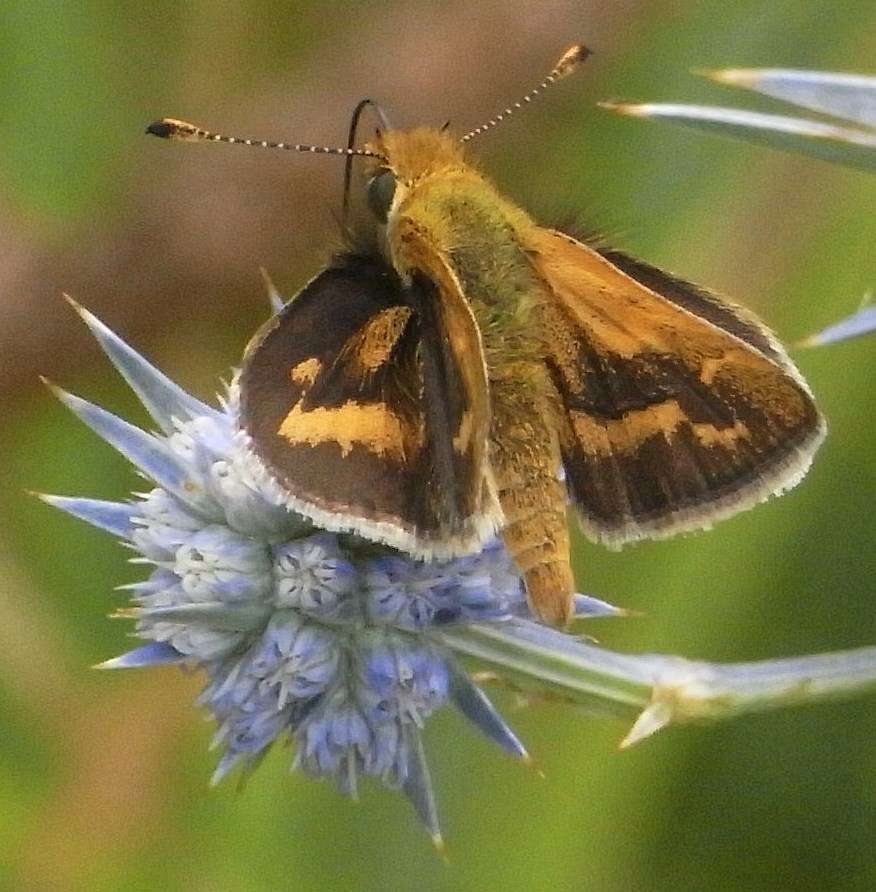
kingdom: Plantae
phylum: Tracheophyta
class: Magnoliopsida
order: Apiales
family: Apiaceae
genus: Eryngium
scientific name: Eryngium ovinum
